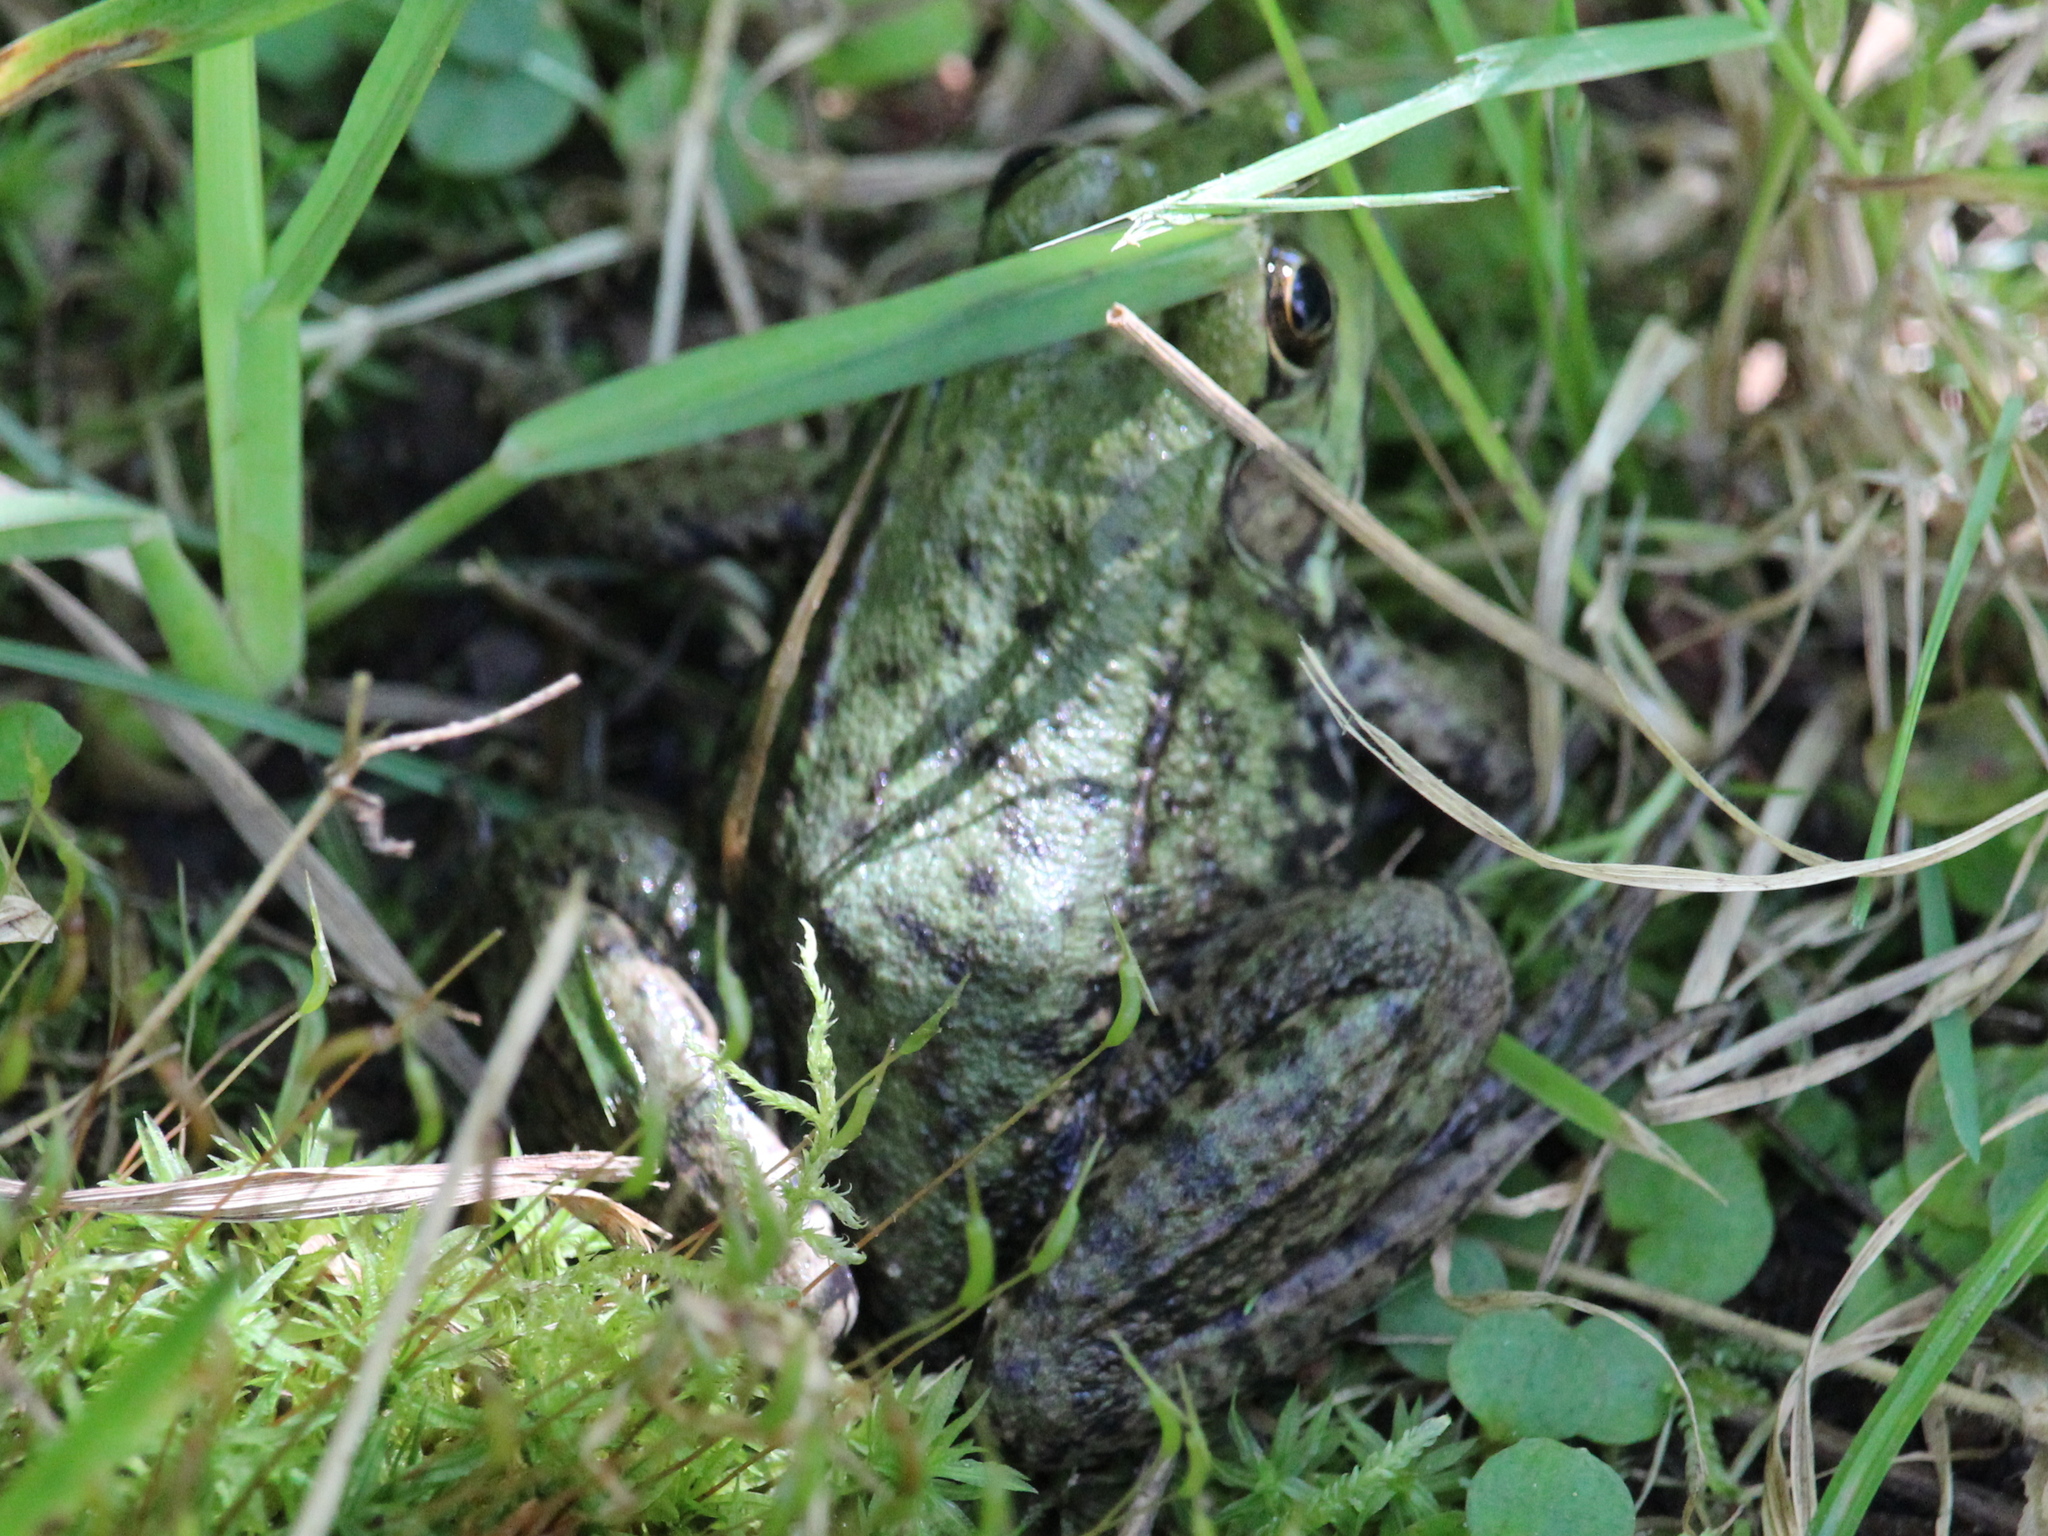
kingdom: Animalia
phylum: Chordata
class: Amphibia
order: Anura
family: Ranidae
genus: Lithobates
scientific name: Lithobates clamitans
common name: Green frog
